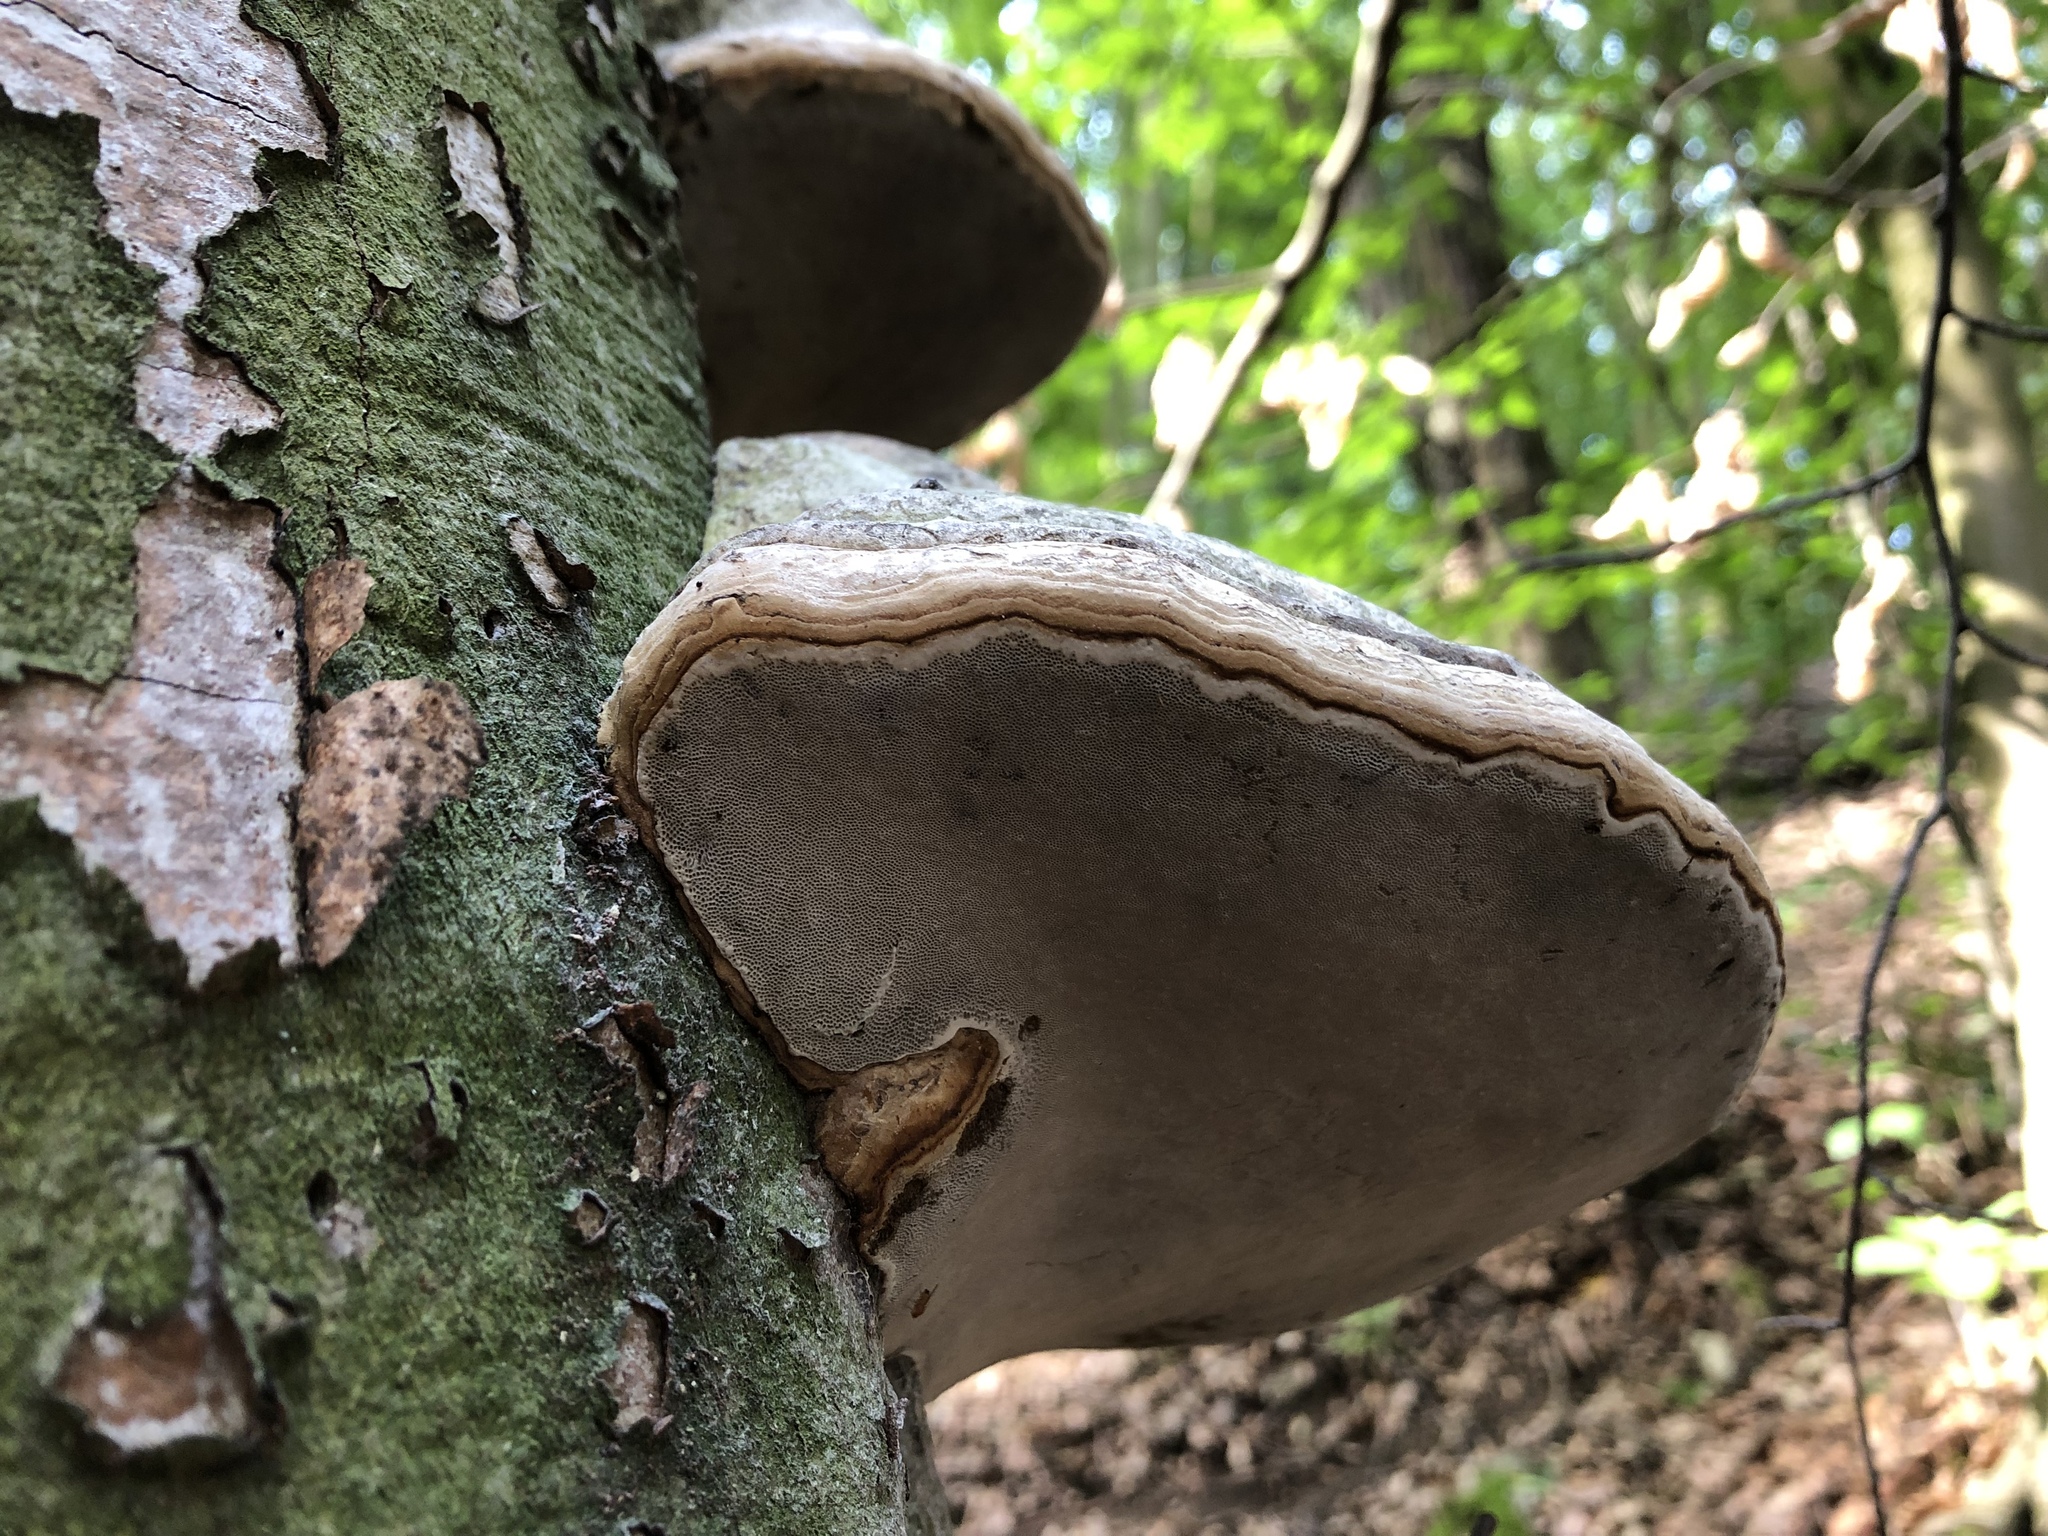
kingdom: Fungi
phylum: Basidiomycota
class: Agaricomycetes
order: Polyporales
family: Polyporaceae
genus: Fomes
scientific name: Fomes fomentarius
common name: Hoof fungus
